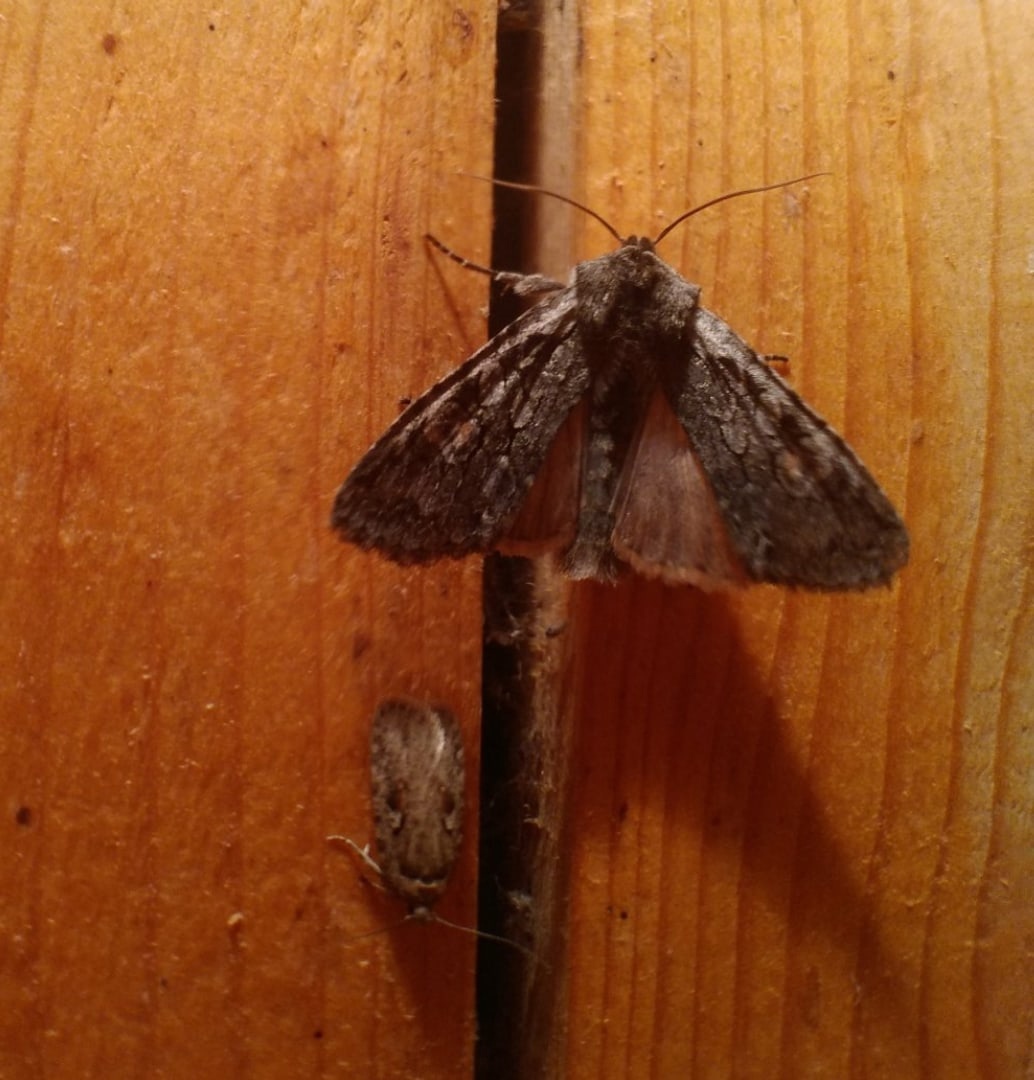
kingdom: Animalia
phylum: Arthropoda
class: Insecta
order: Lepidoptera
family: Noctuidae
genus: Lithophane
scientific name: Lithophane consocia
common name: Softly's shoulder-knot
